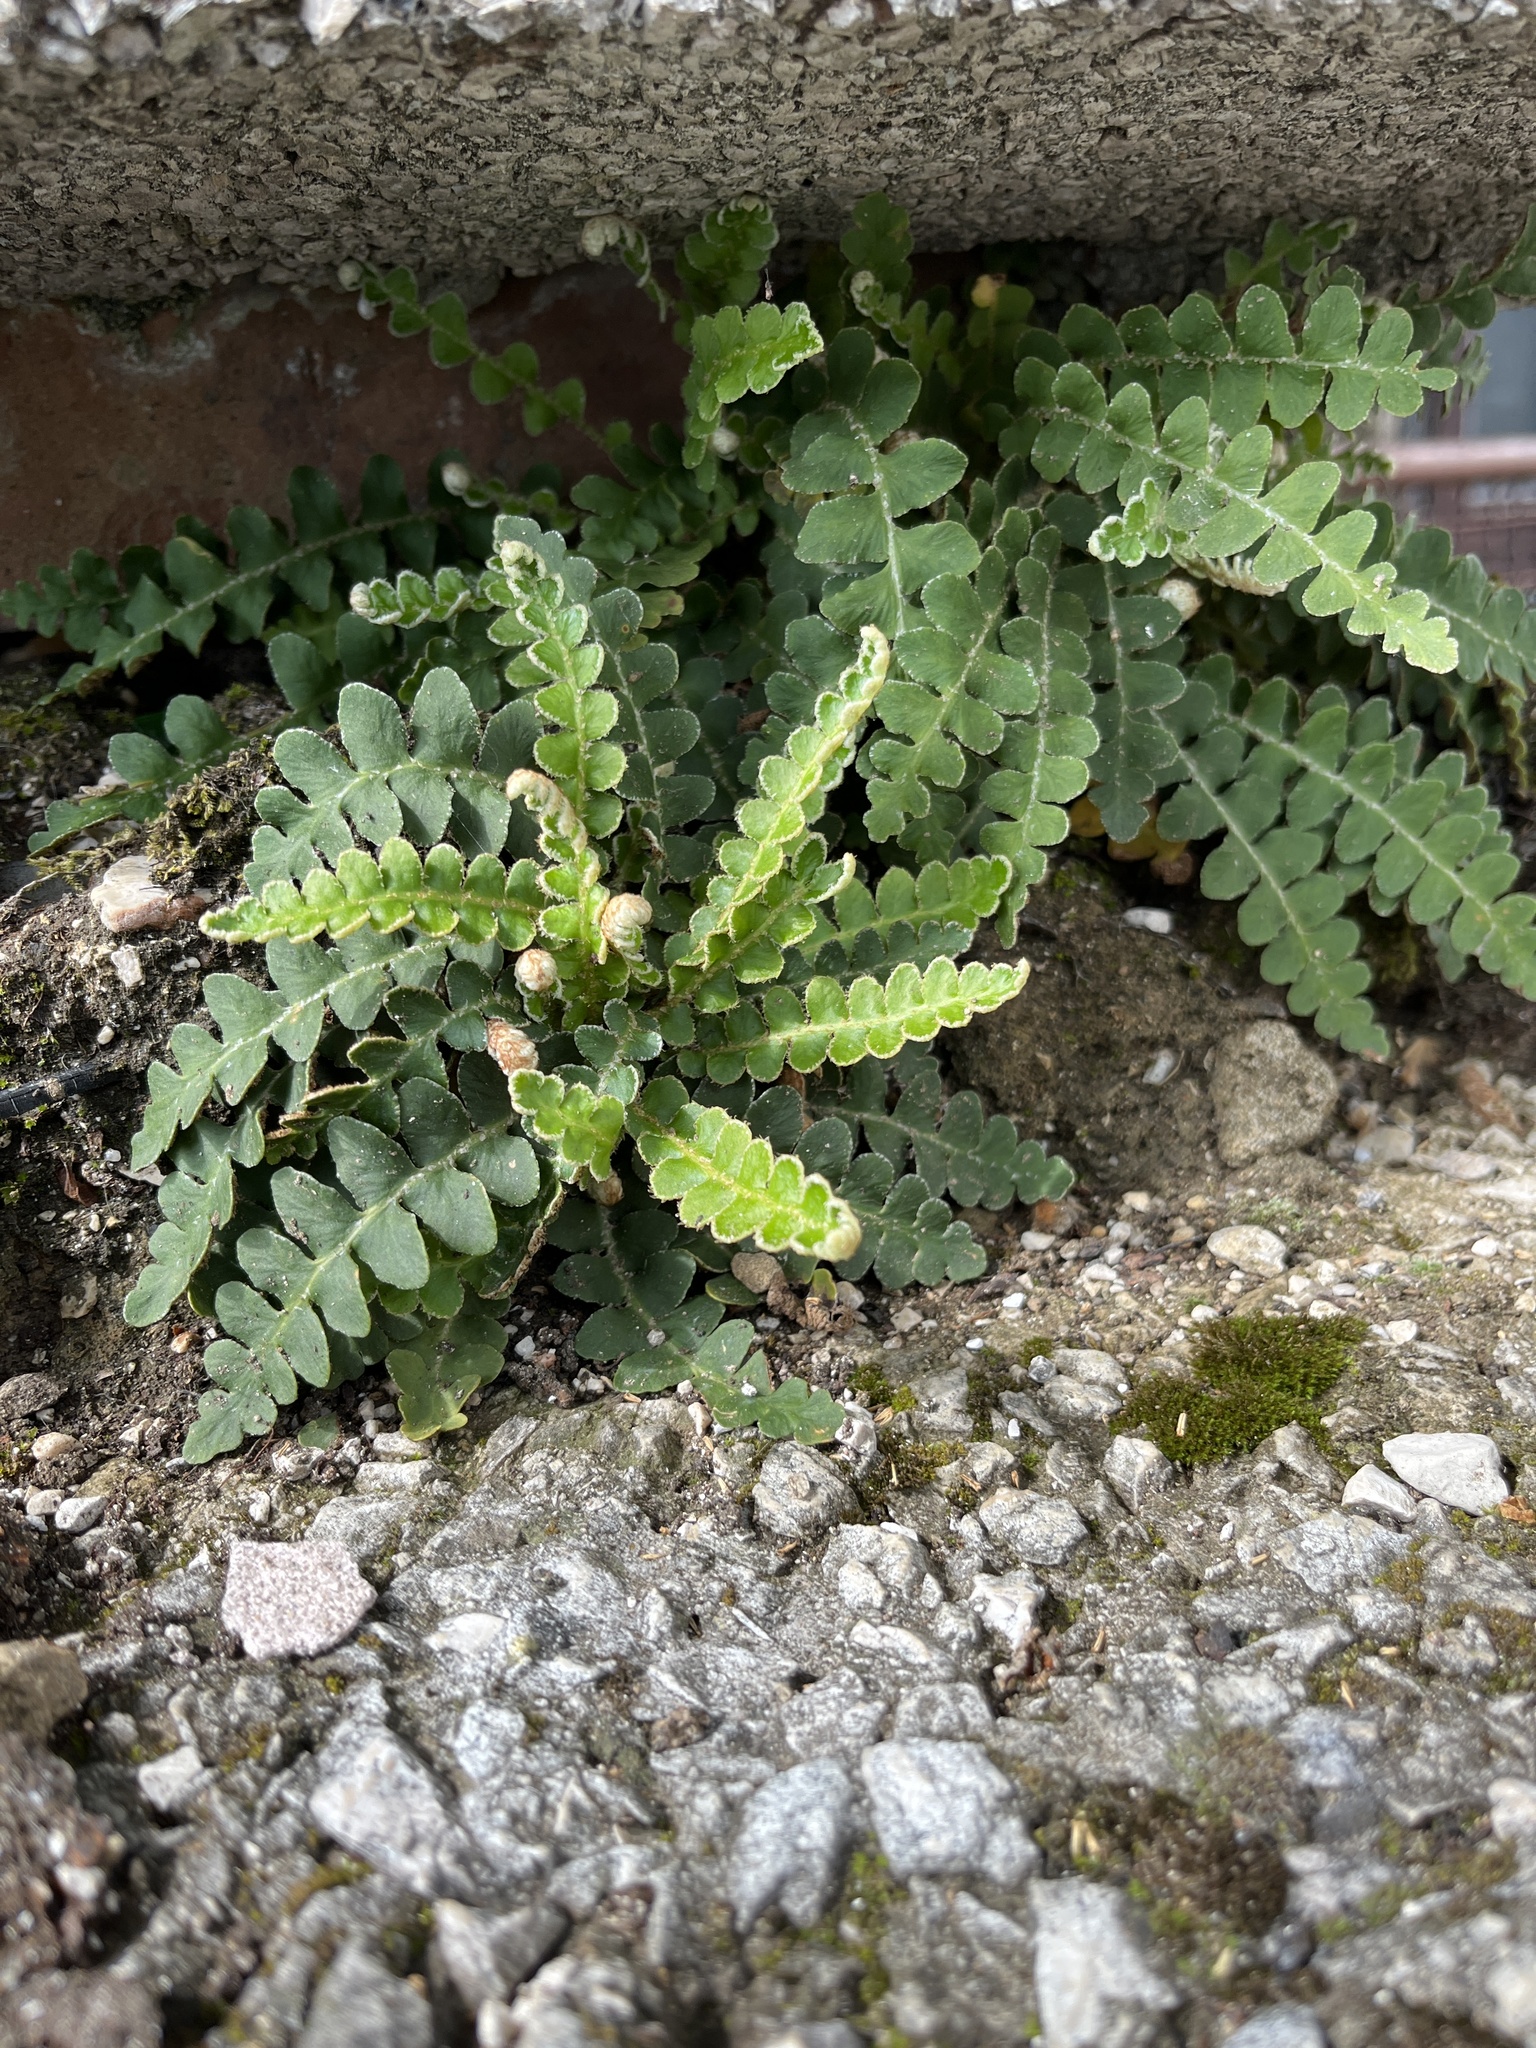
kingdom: Plantae
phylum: Tracheophyta
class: Polypodiopsida
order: Polypodiales
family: Aspleniaceae
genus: Asplenium
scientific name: Asplenium ceterach
